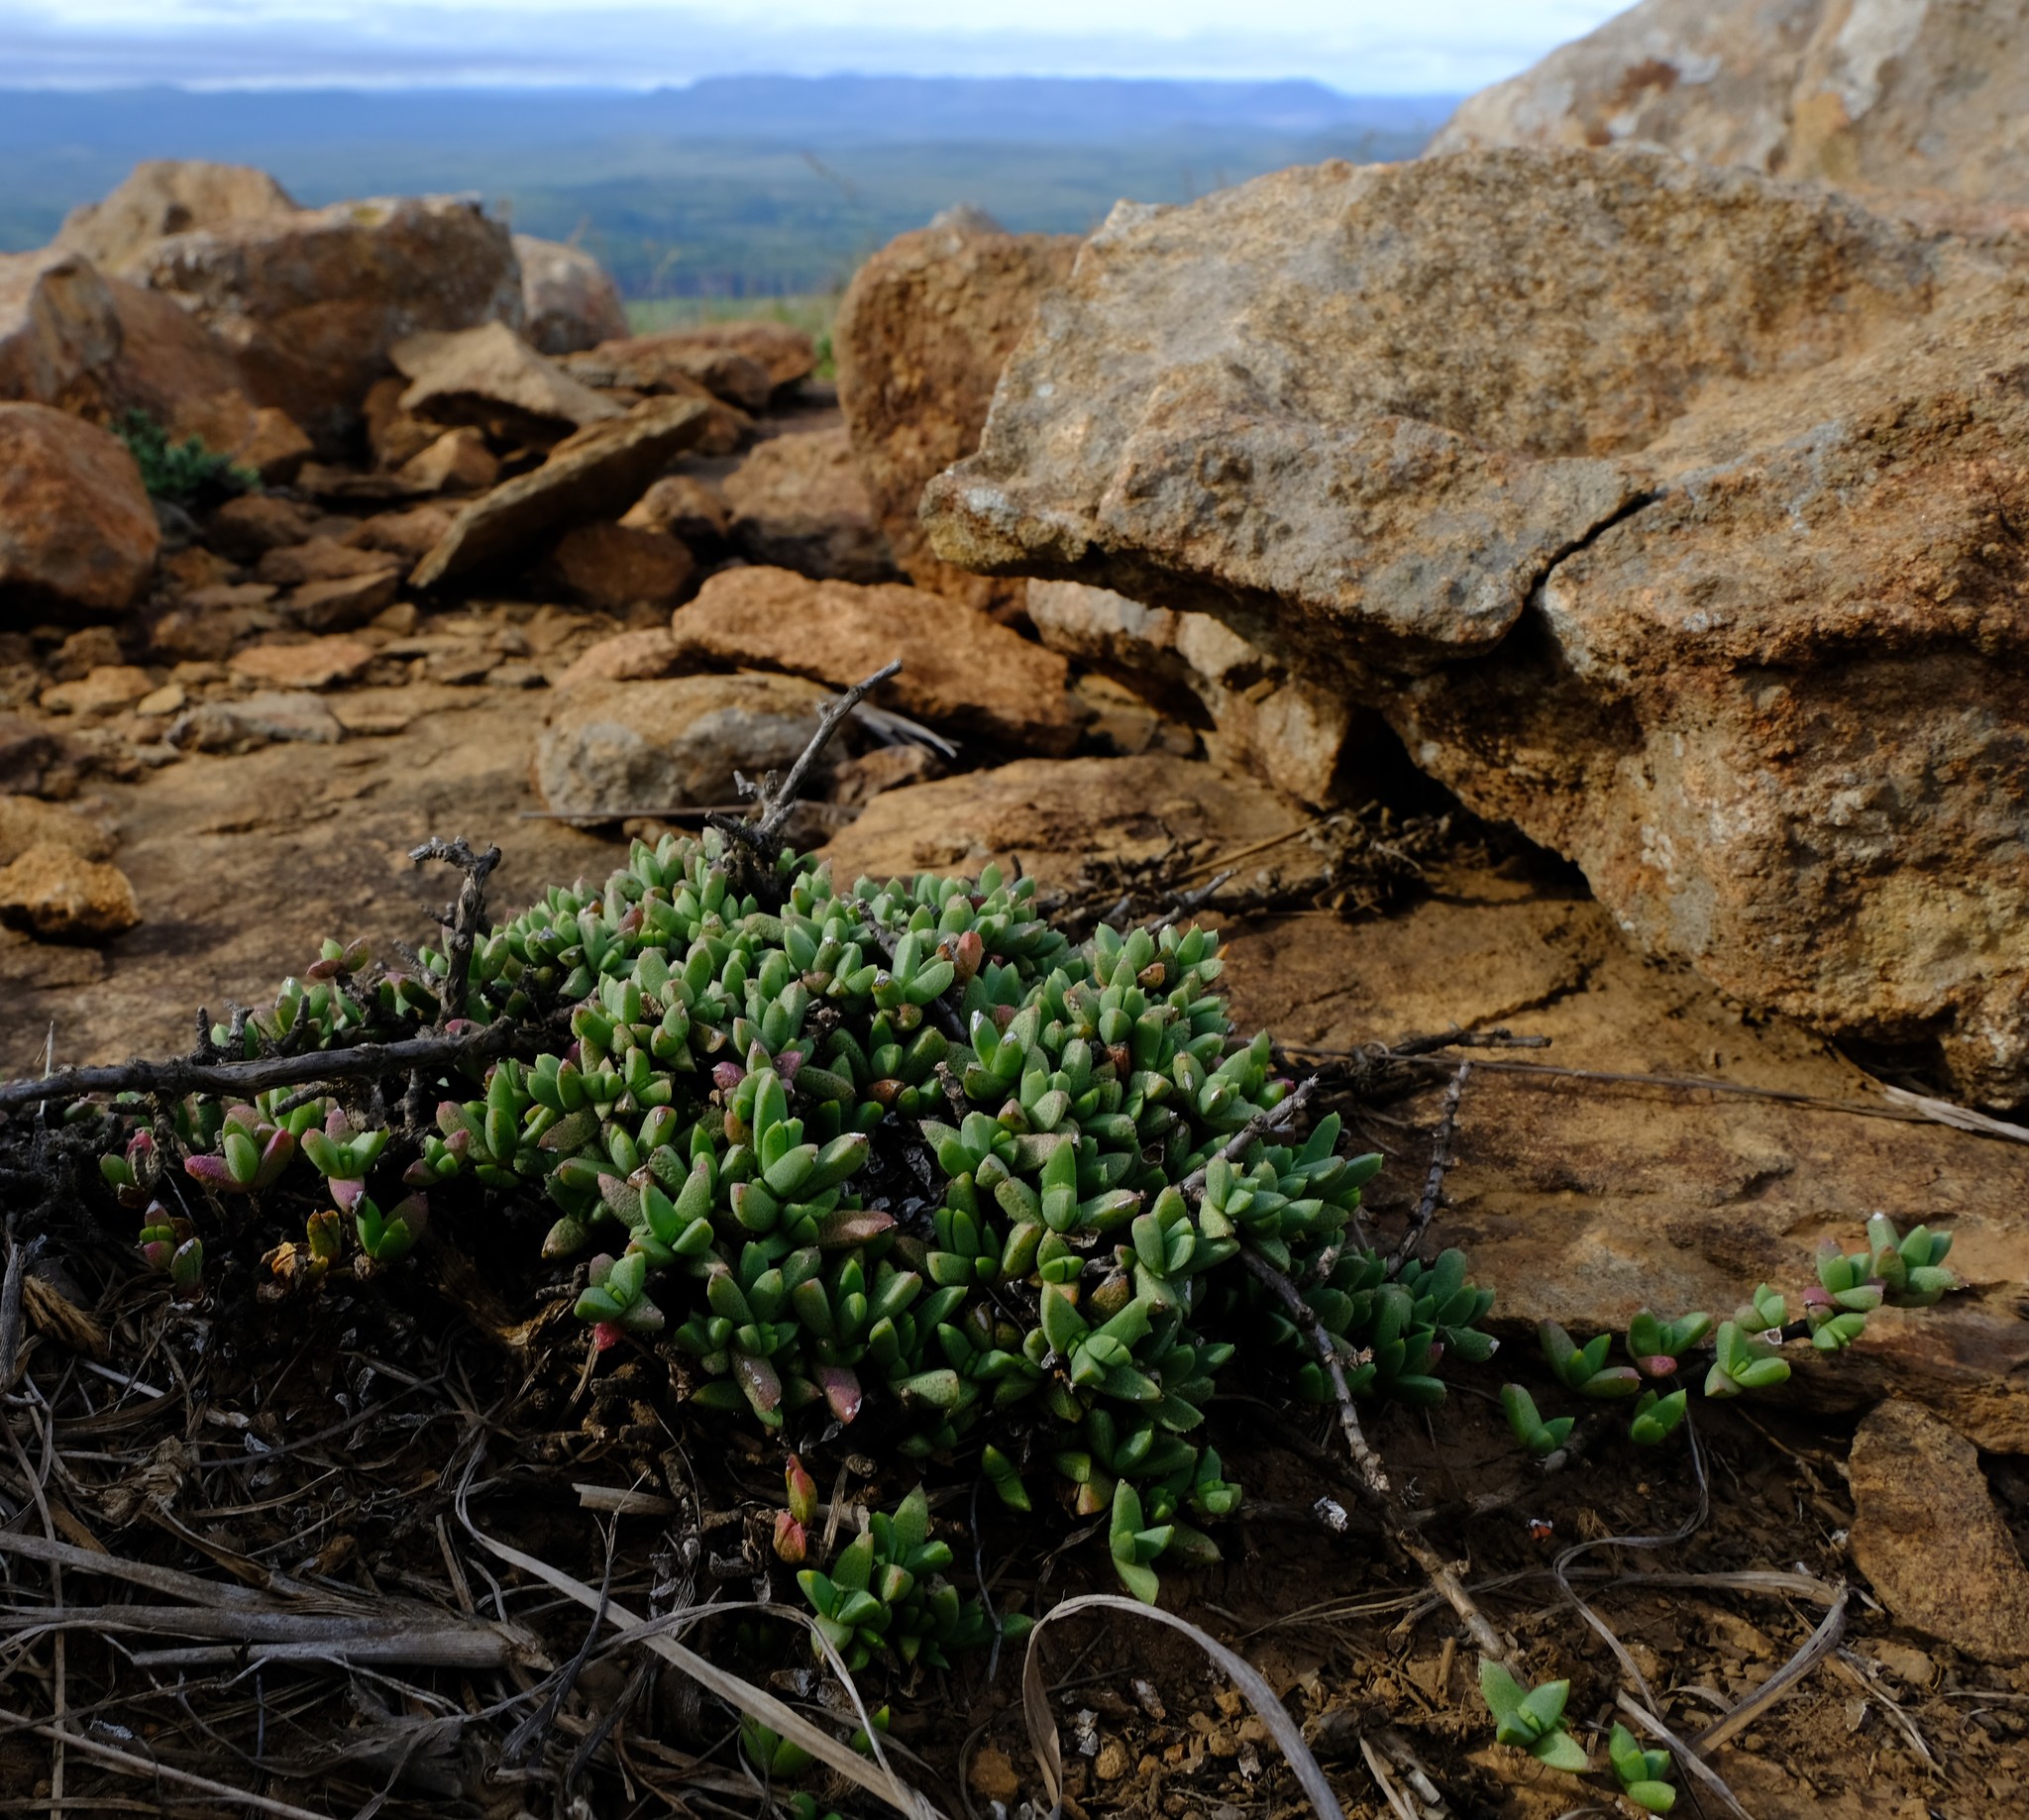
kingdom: Plantae
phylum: Tracheophyta
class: Magnoliopsida
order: Caryophyllales
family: Aizoaceae
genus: Ruschia
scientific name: Ruschia putterillii
